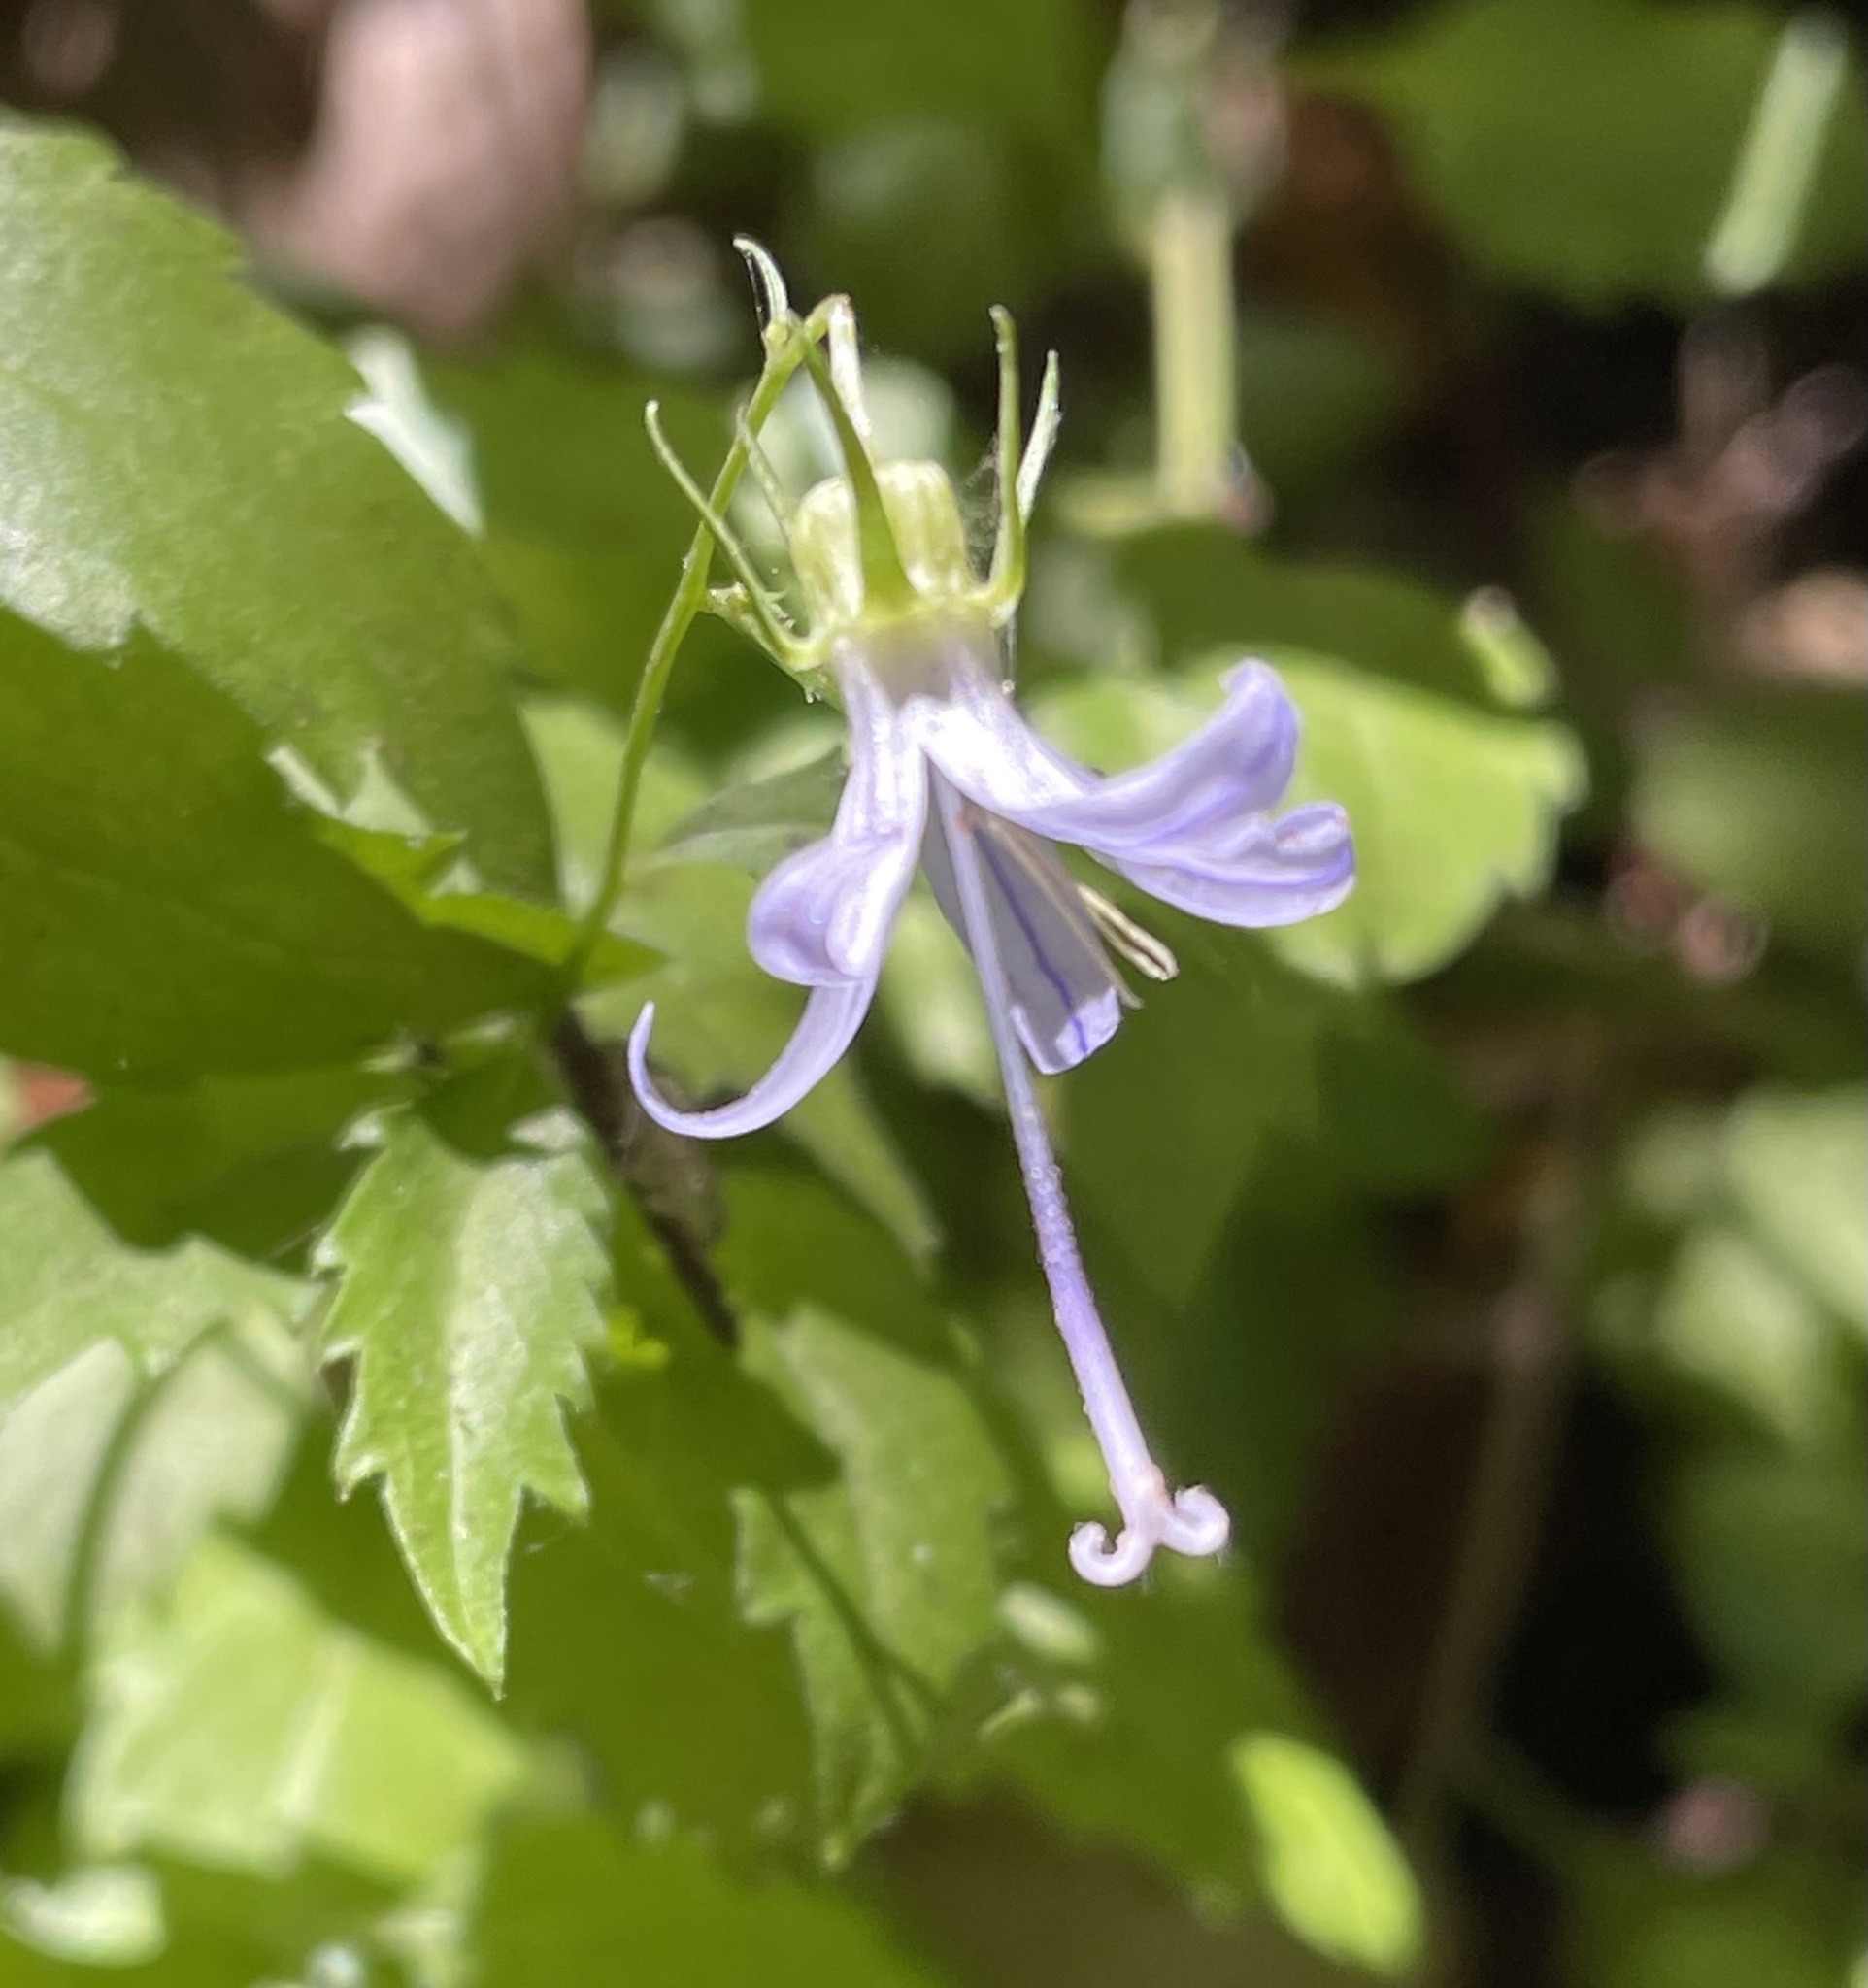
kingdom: Plantae
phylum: Tracheophyta
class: Magnoliopsida
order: Asterales
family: Campanulaceae
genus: Smithiastrum
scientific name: Smithiastrum prenanthoides
